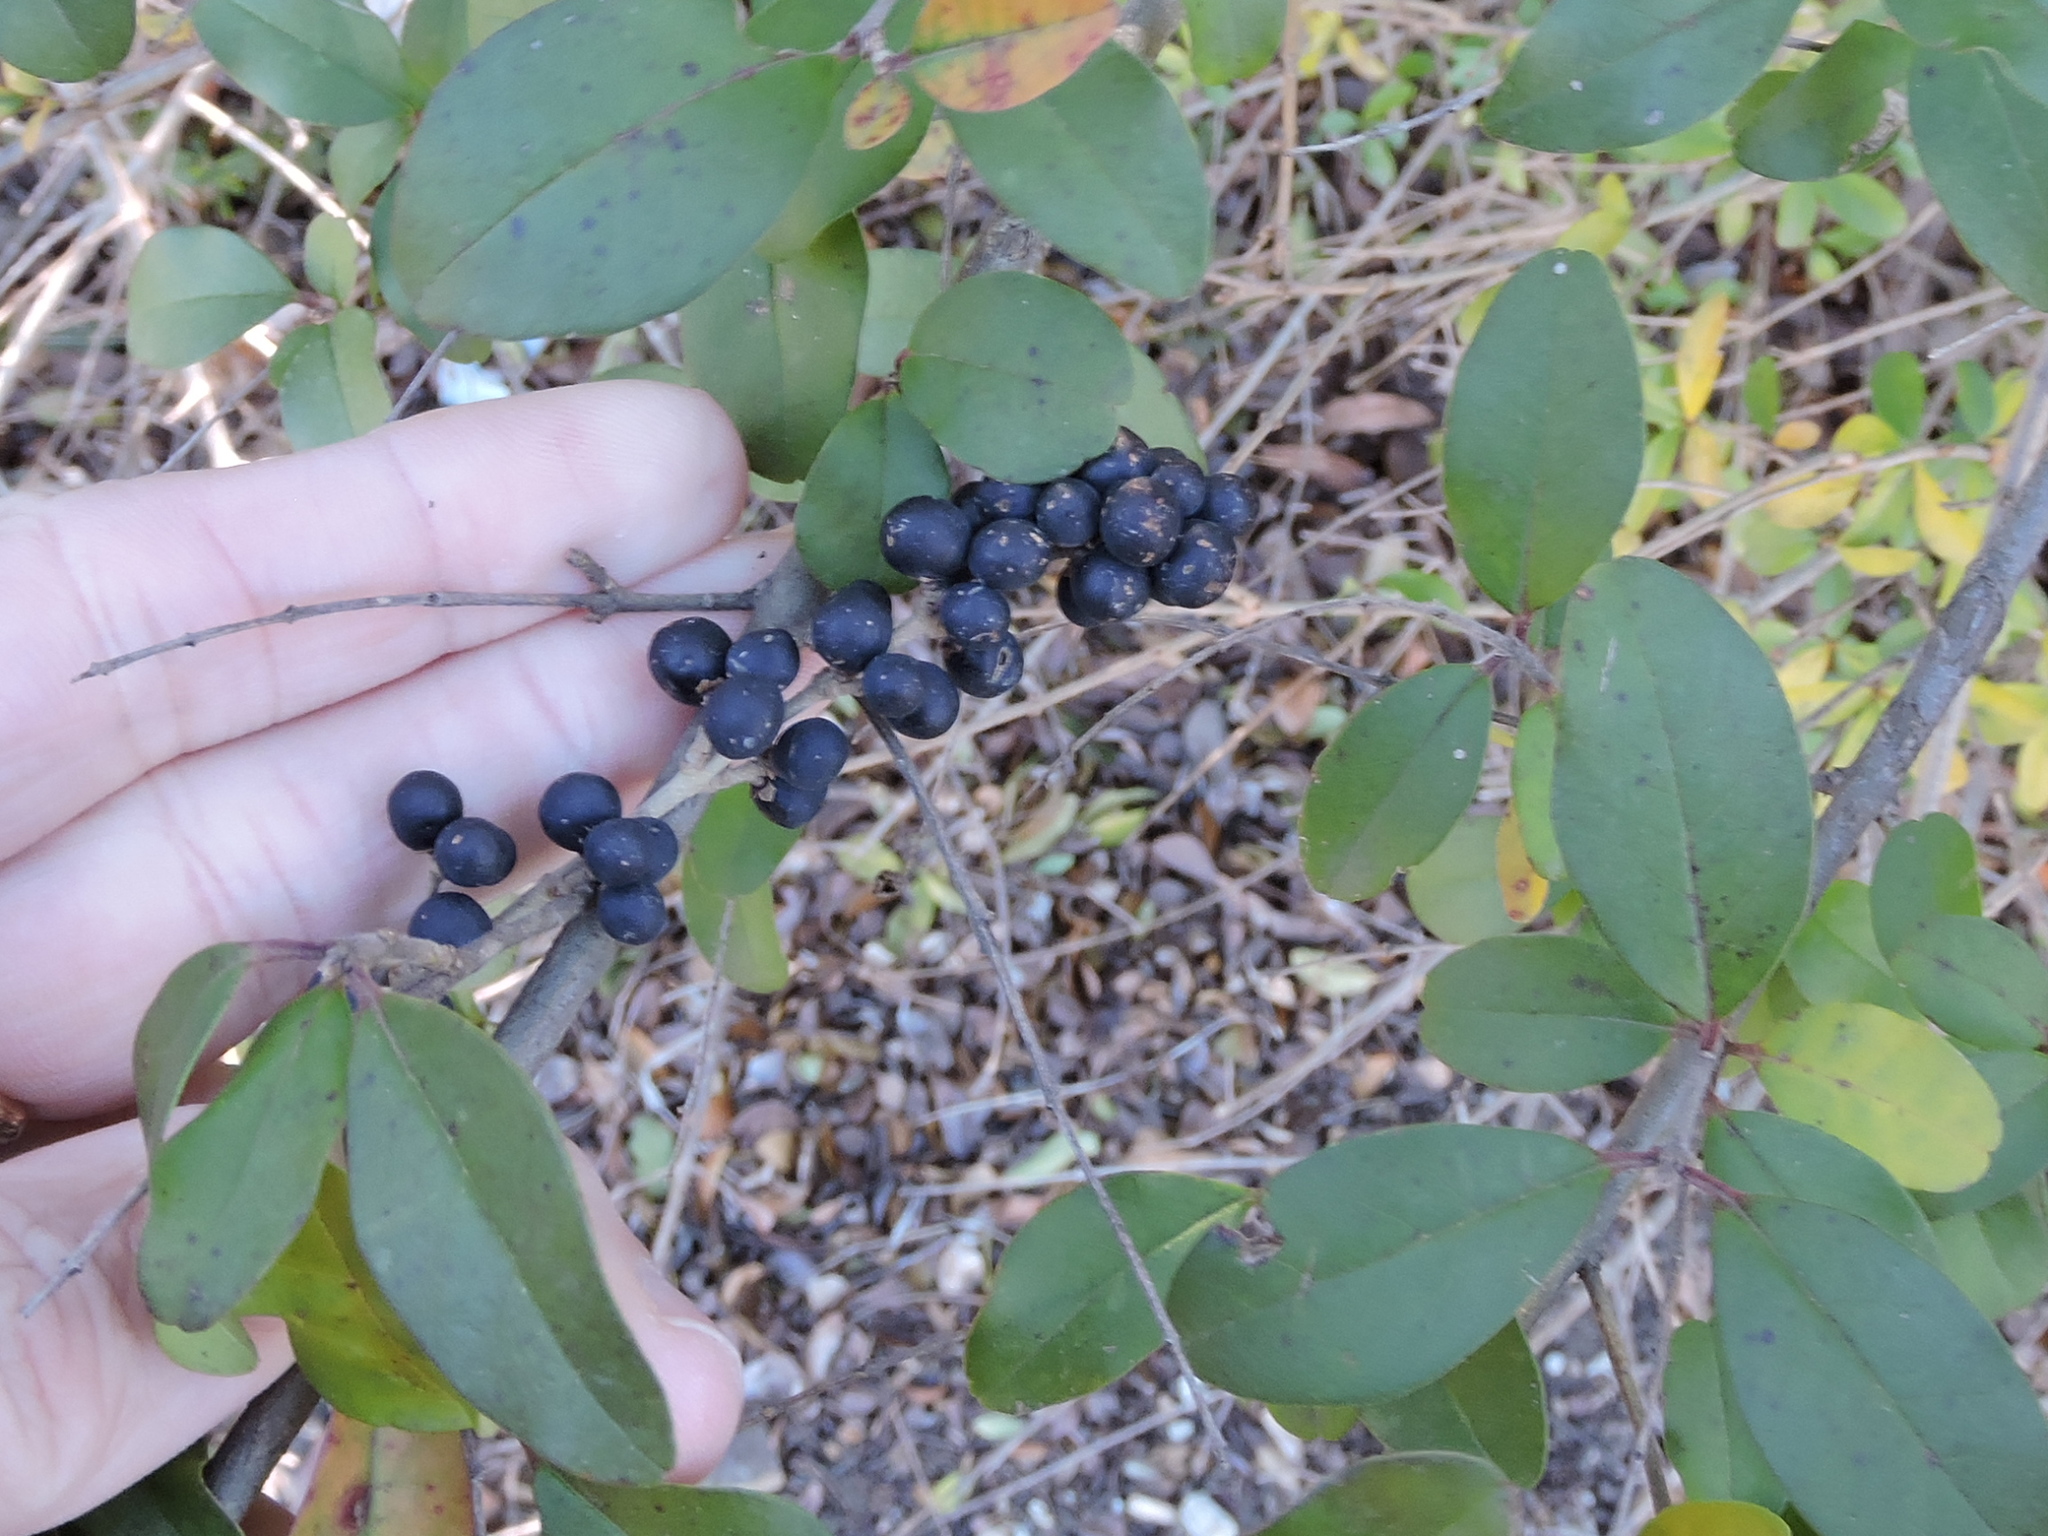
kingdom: Plantae
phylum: Tracheophyta
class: Magnoliopsida
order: Lamiales
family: Oleaceae
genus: Ligustrum
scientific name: Ligustrum quihoui
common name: Waxyleaf privet
